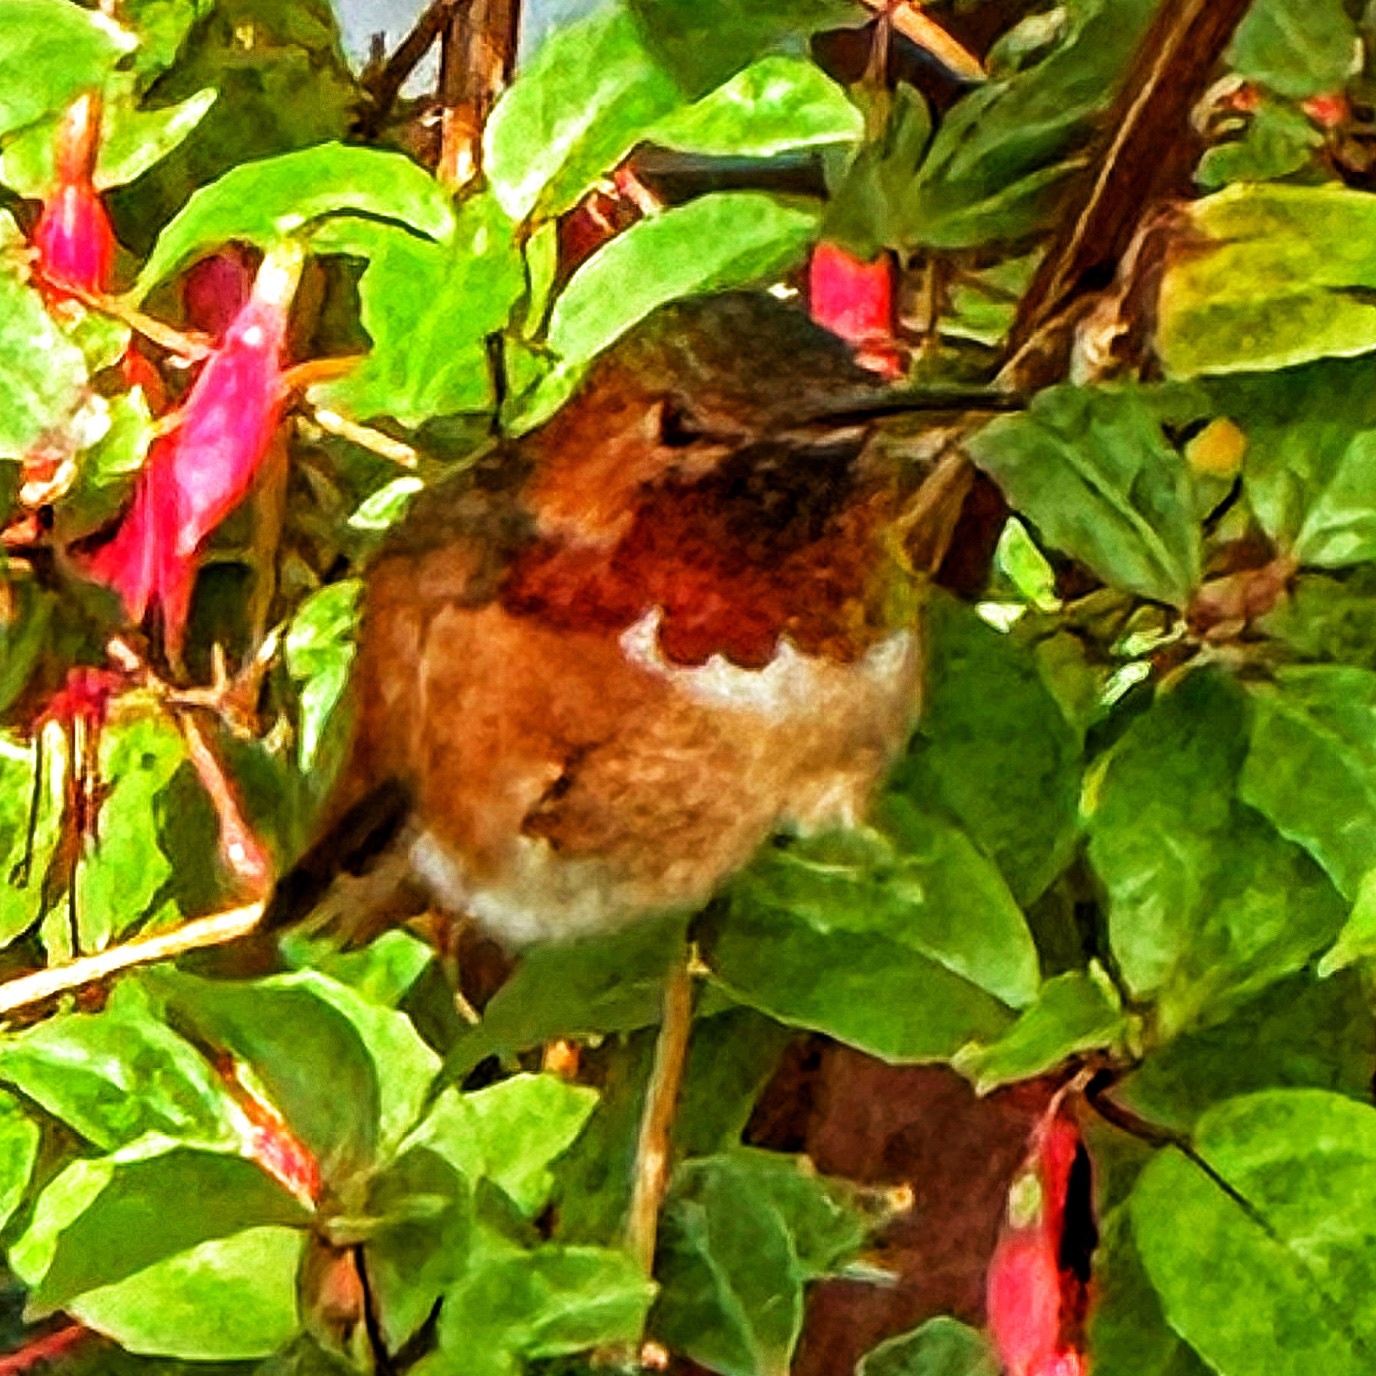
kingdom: Animalia
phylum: Chordata
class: Aves
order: Apodiformes
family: Trochilidae
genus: Selasphorus
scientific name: Selasphorus sasin
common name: Allen's hummingbird
